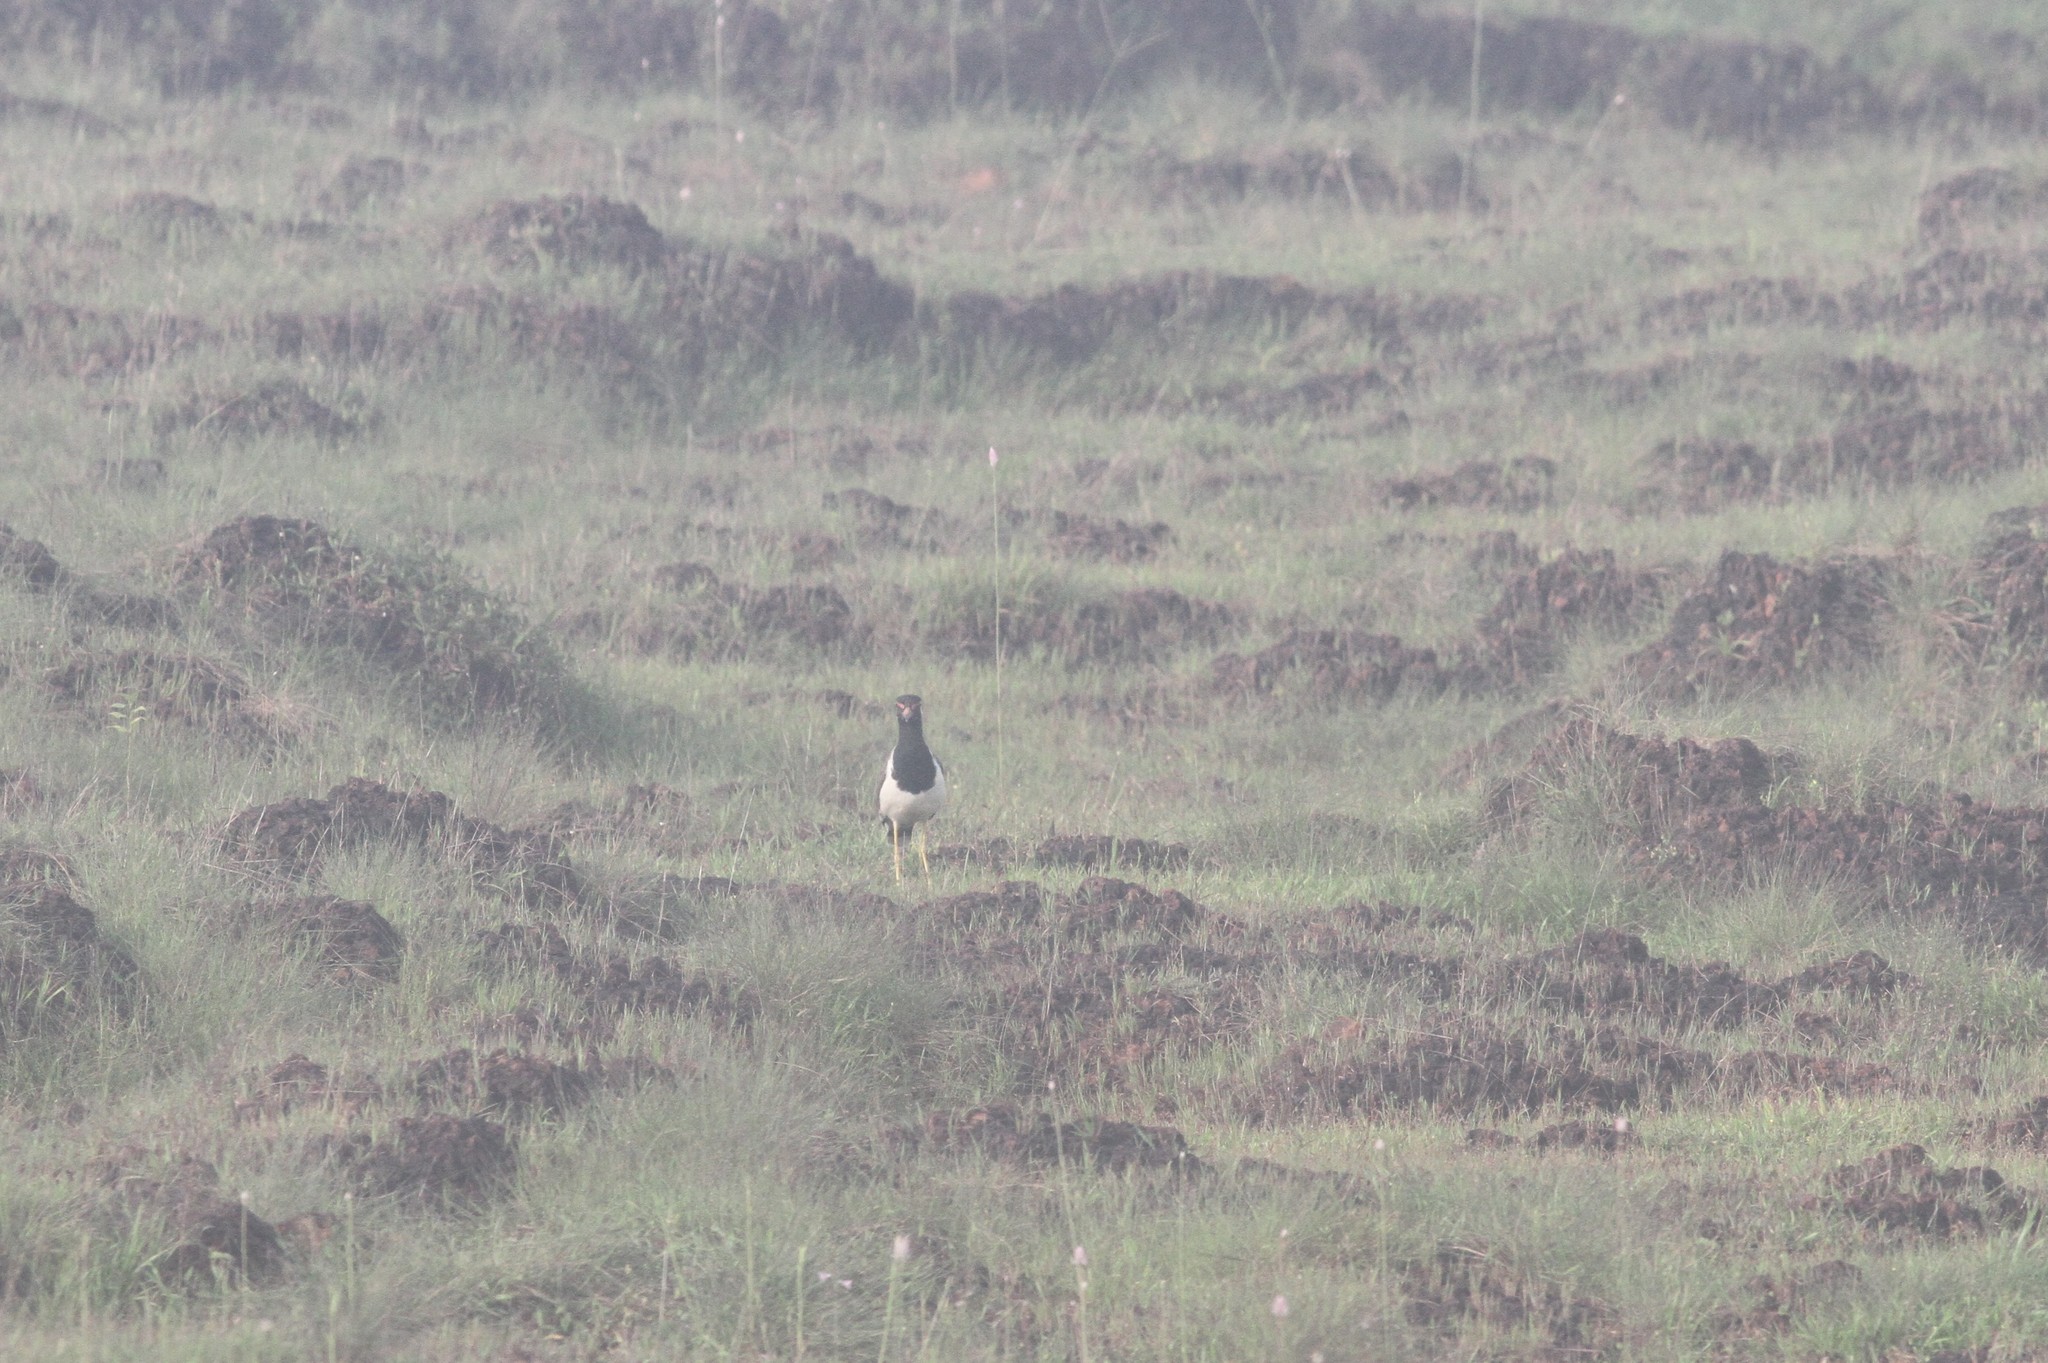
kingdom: Animalia
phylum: Chordata
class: Aves
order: Charadriiformes
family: Charadriidae
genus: Vanellus
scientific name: Vanellus indicus
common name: Red-wattled lapwing
